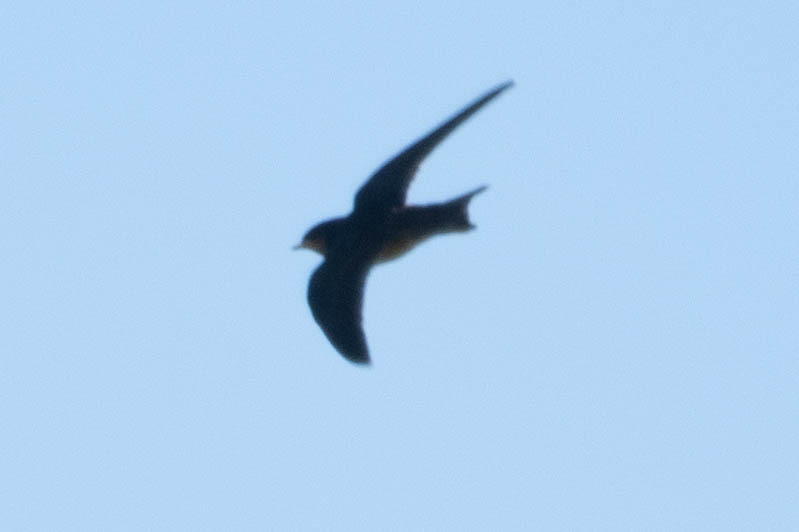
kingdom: Animalia
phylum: Chordata
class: Aves
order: Passeriformes
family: Hirundinidae
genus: Hirundo
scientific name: Hirundo rustica
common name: Barn swallow
